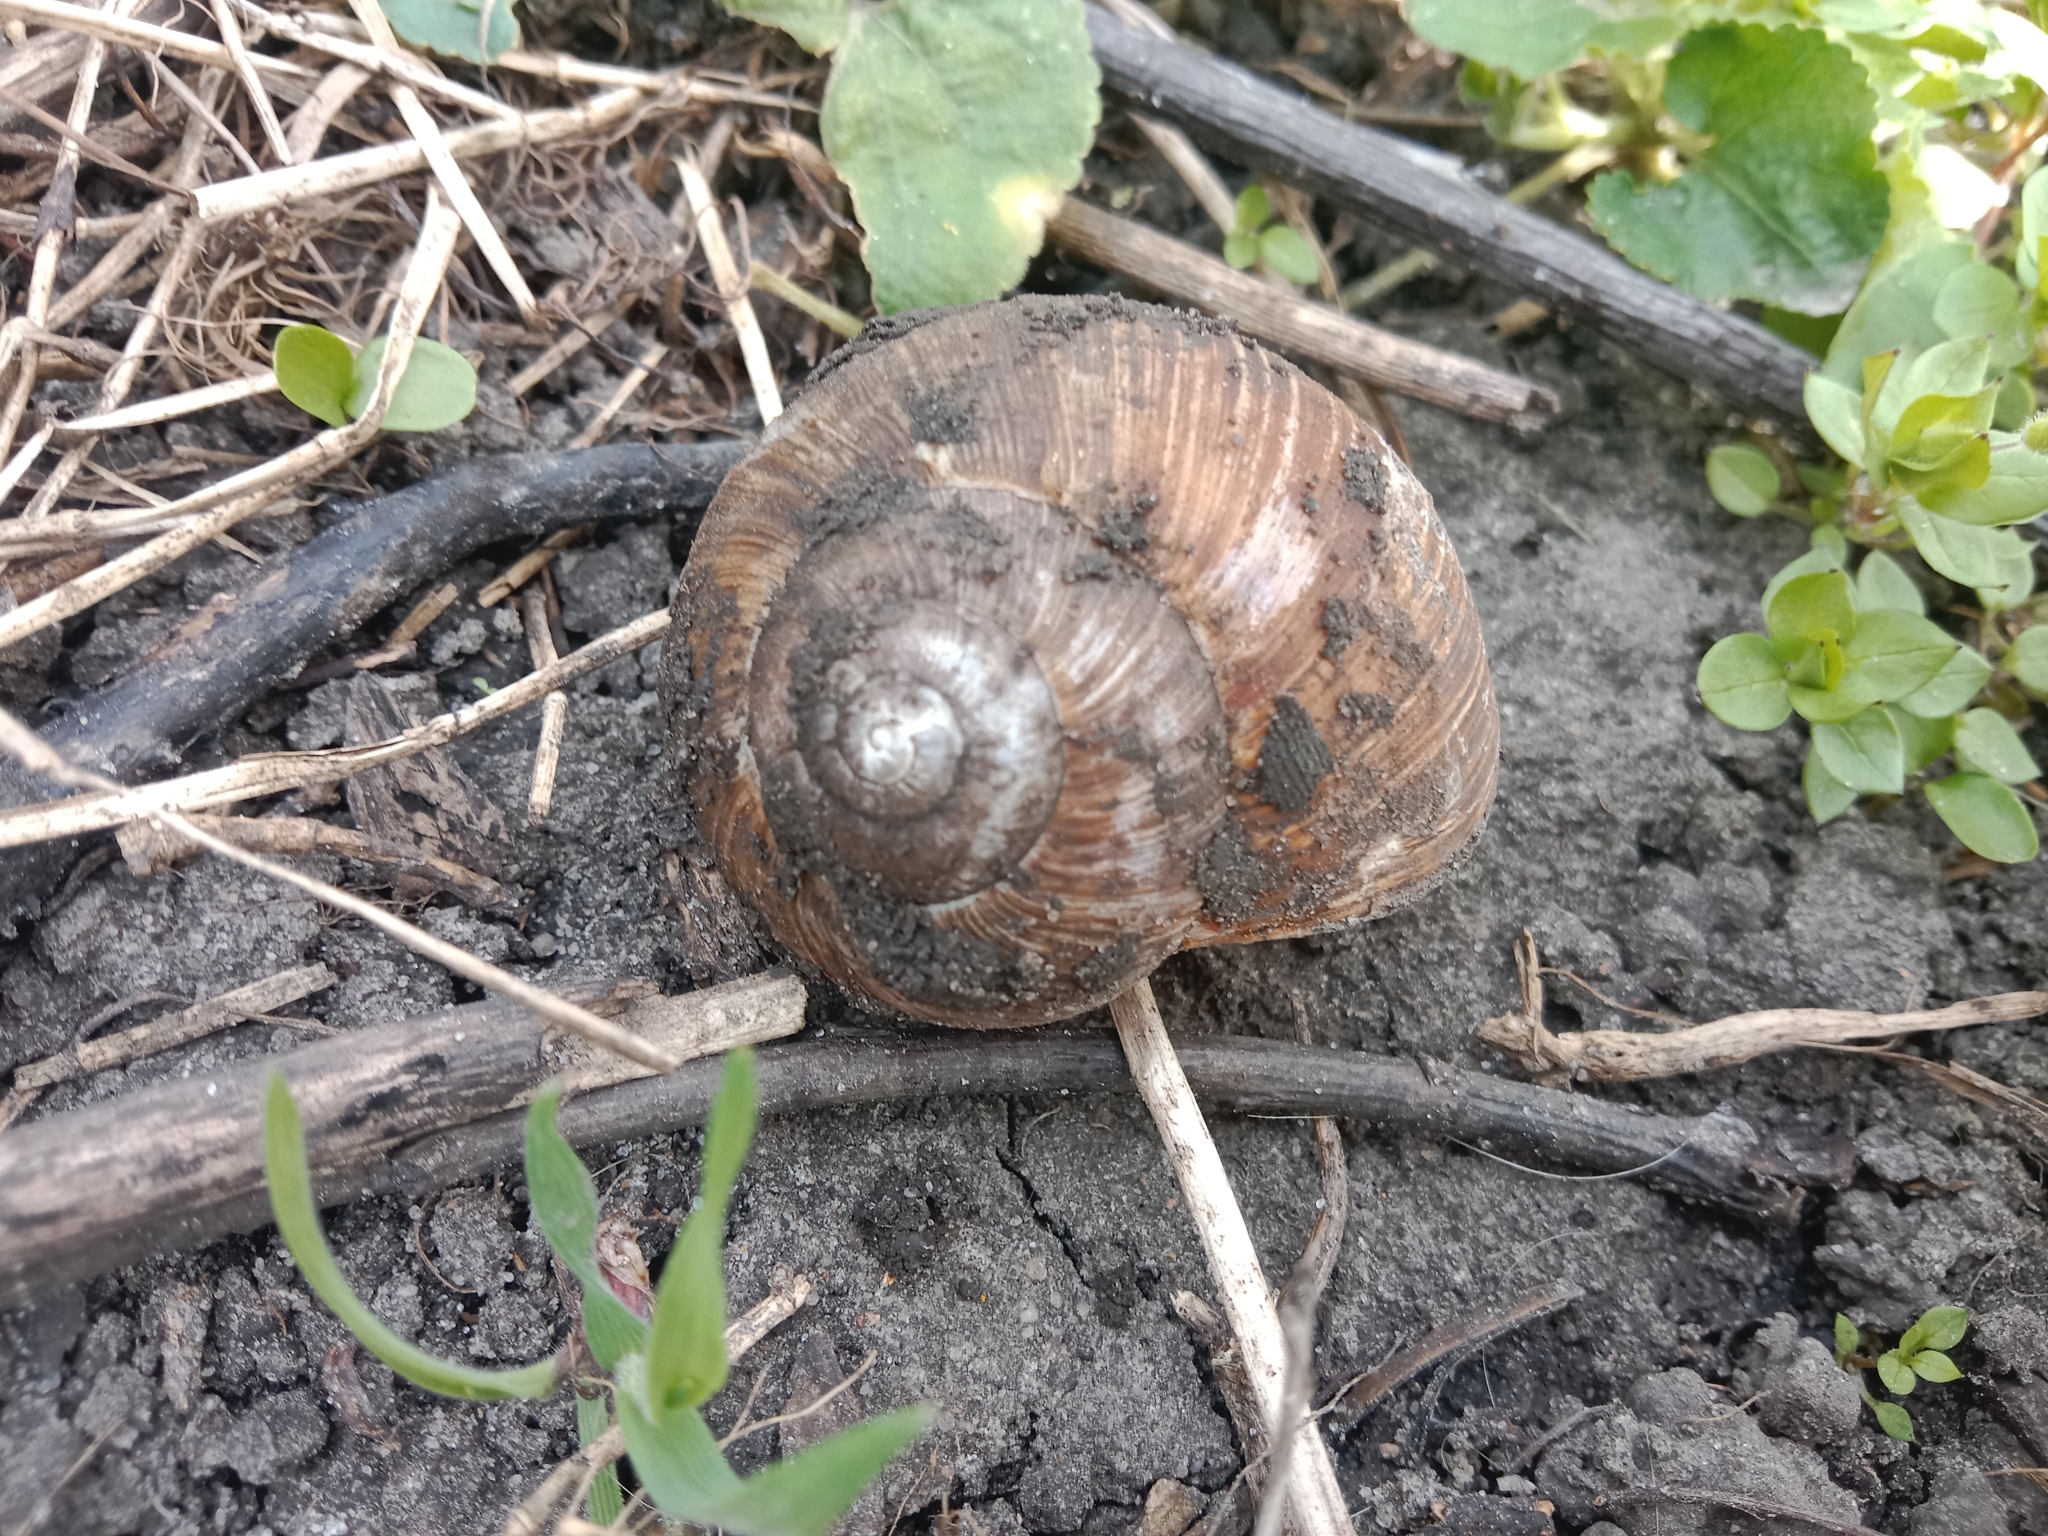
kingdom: Animalia
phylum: Mollusca
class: Gastropoda
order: Stylommatophora
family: Helicidae
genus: Helix
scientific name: Helix pomatia
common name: Roman snail
